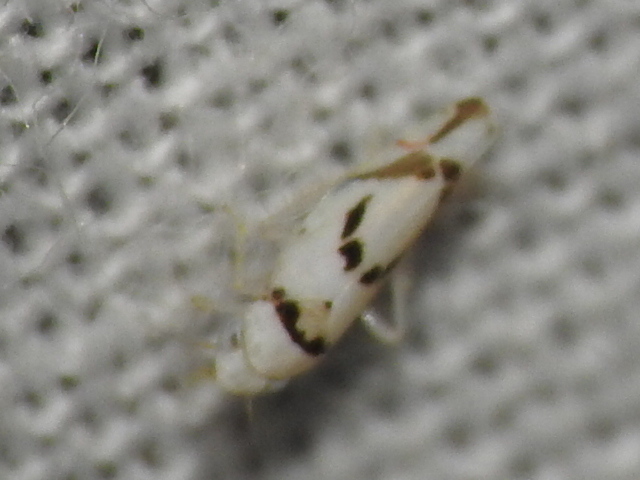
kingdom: Animalia
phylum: Arthropoda
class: Insecta
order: Hemiptera
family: Cicadellidae
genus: Eratoneura
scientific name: Eratoneura lunata
